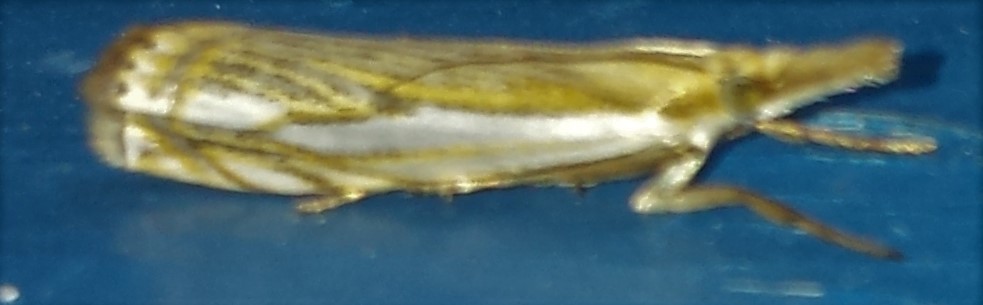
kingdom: Animalia
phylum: Arthropoda
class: Insecta
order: Lepidoptera
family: Crambidae
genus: Crambus
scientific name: Crambus saltuellus
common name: Pasture grass-veneer
